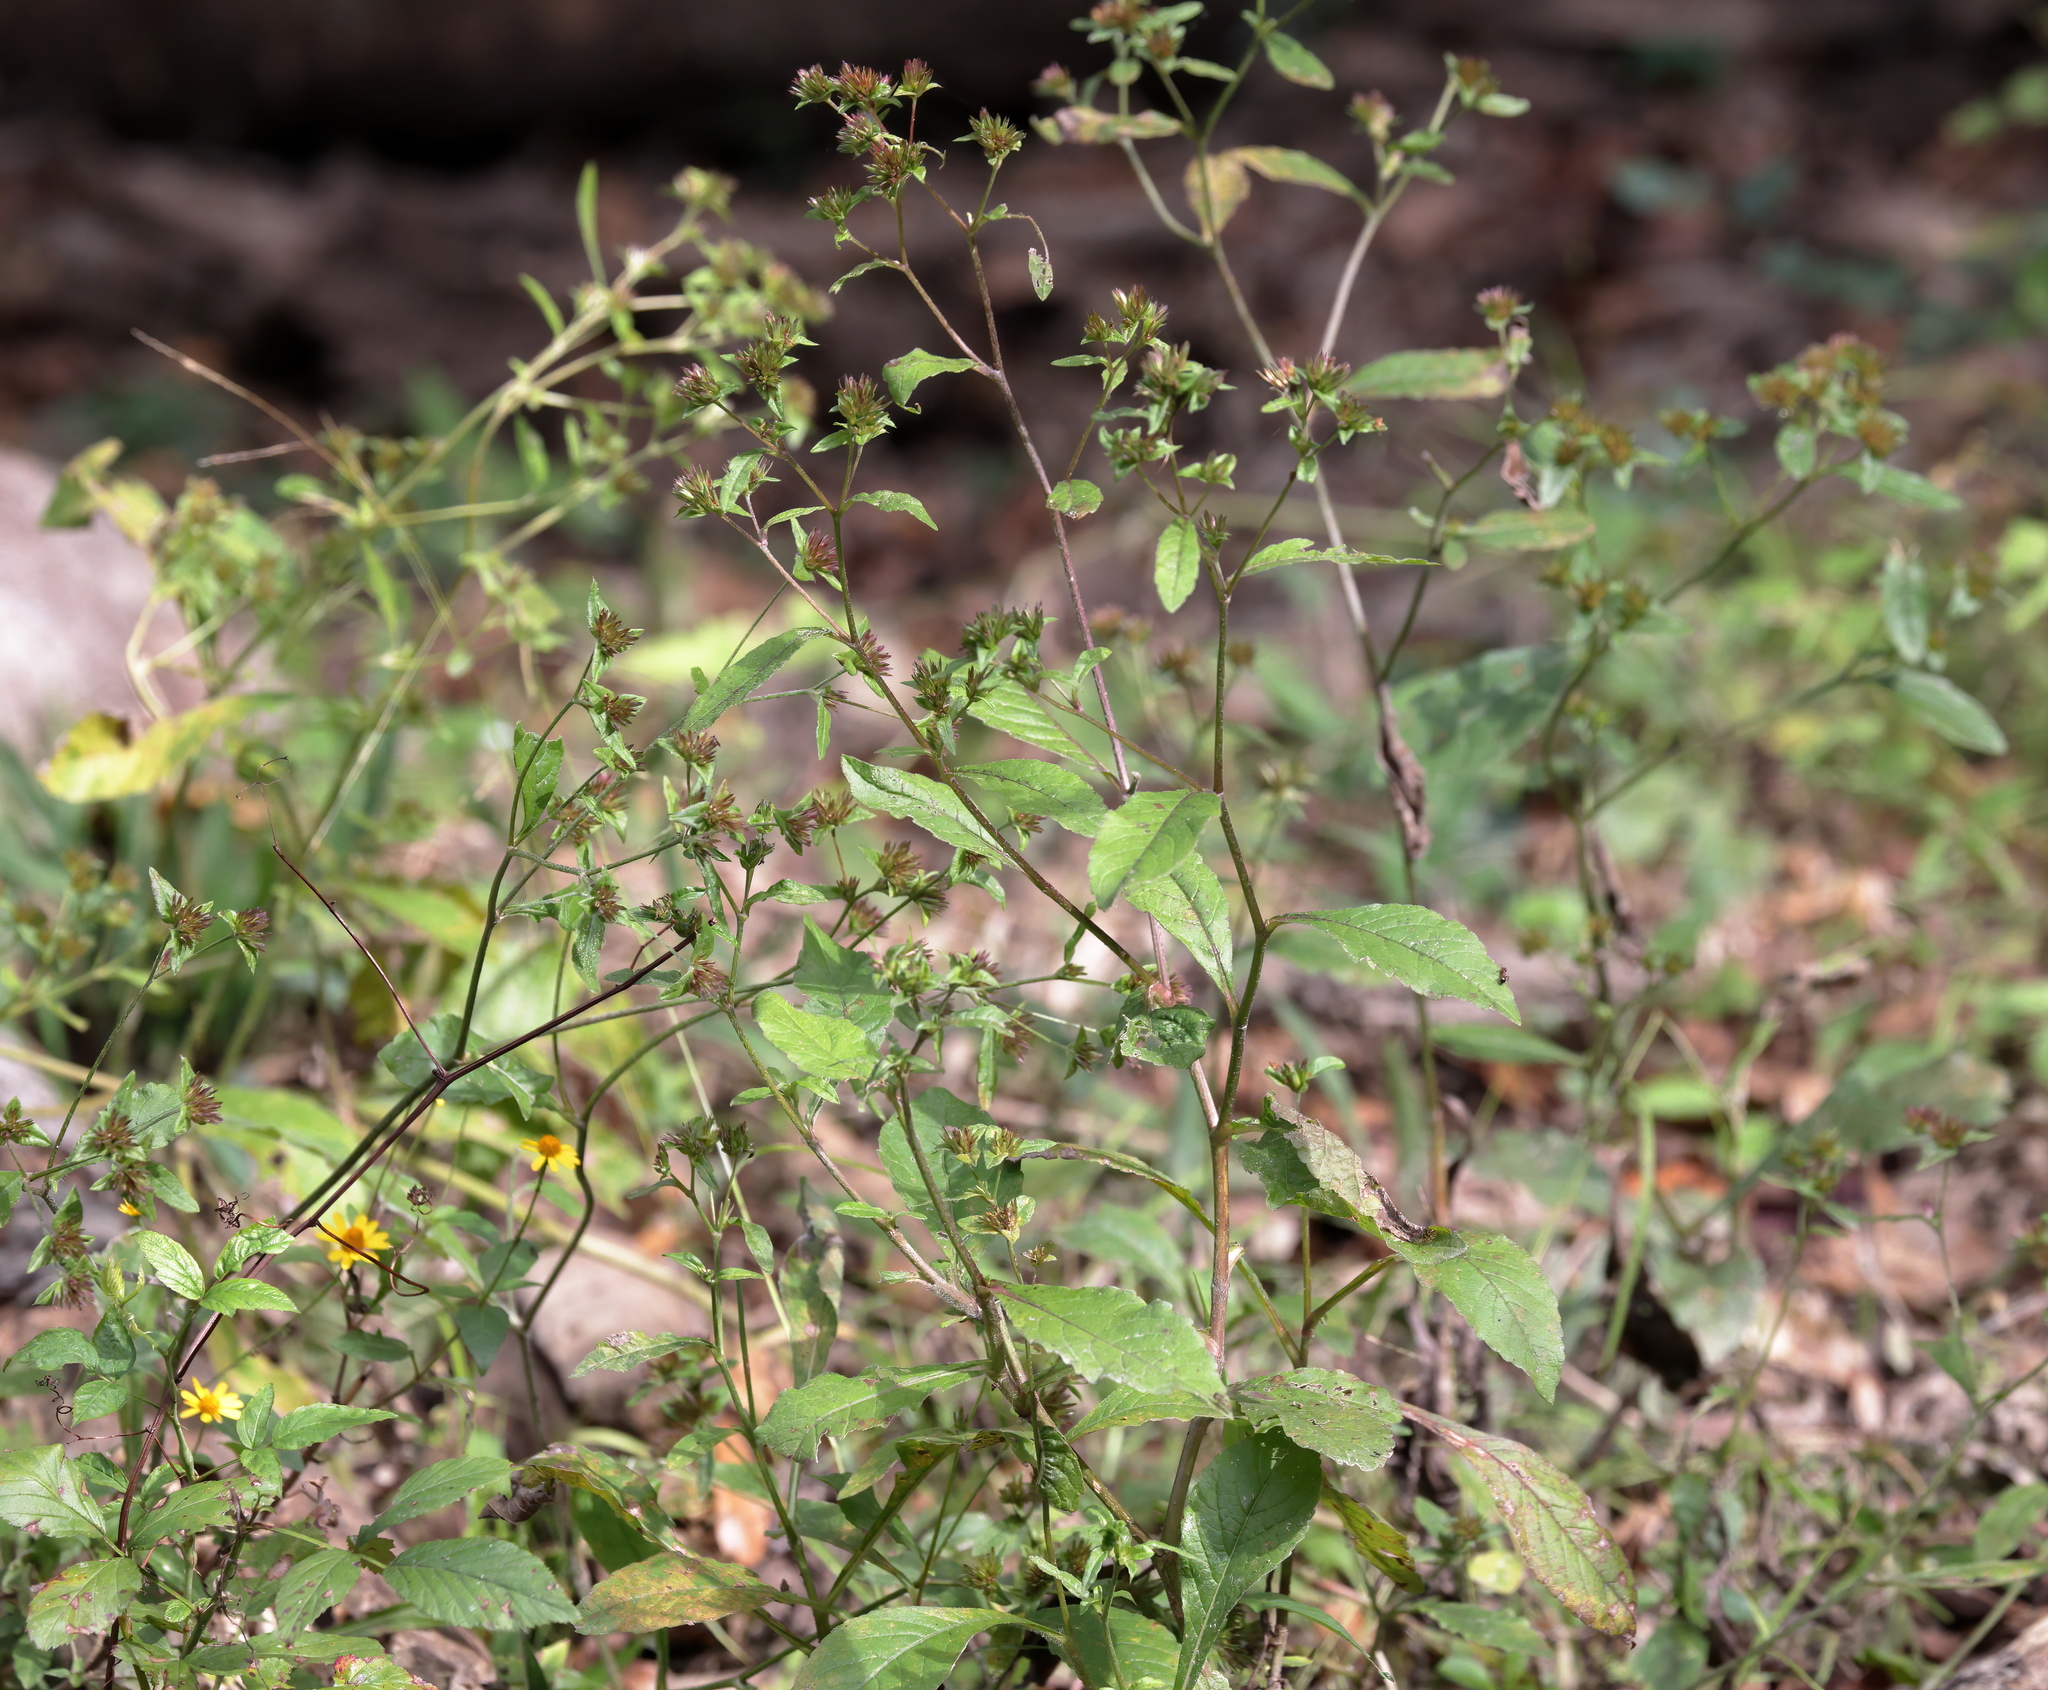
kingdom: Plantae
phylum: Tracheophyta
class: Magnoliopsida
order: Asterales
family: Asteraceae
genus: Elephantopus
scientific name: Elephantopus carolinianus
